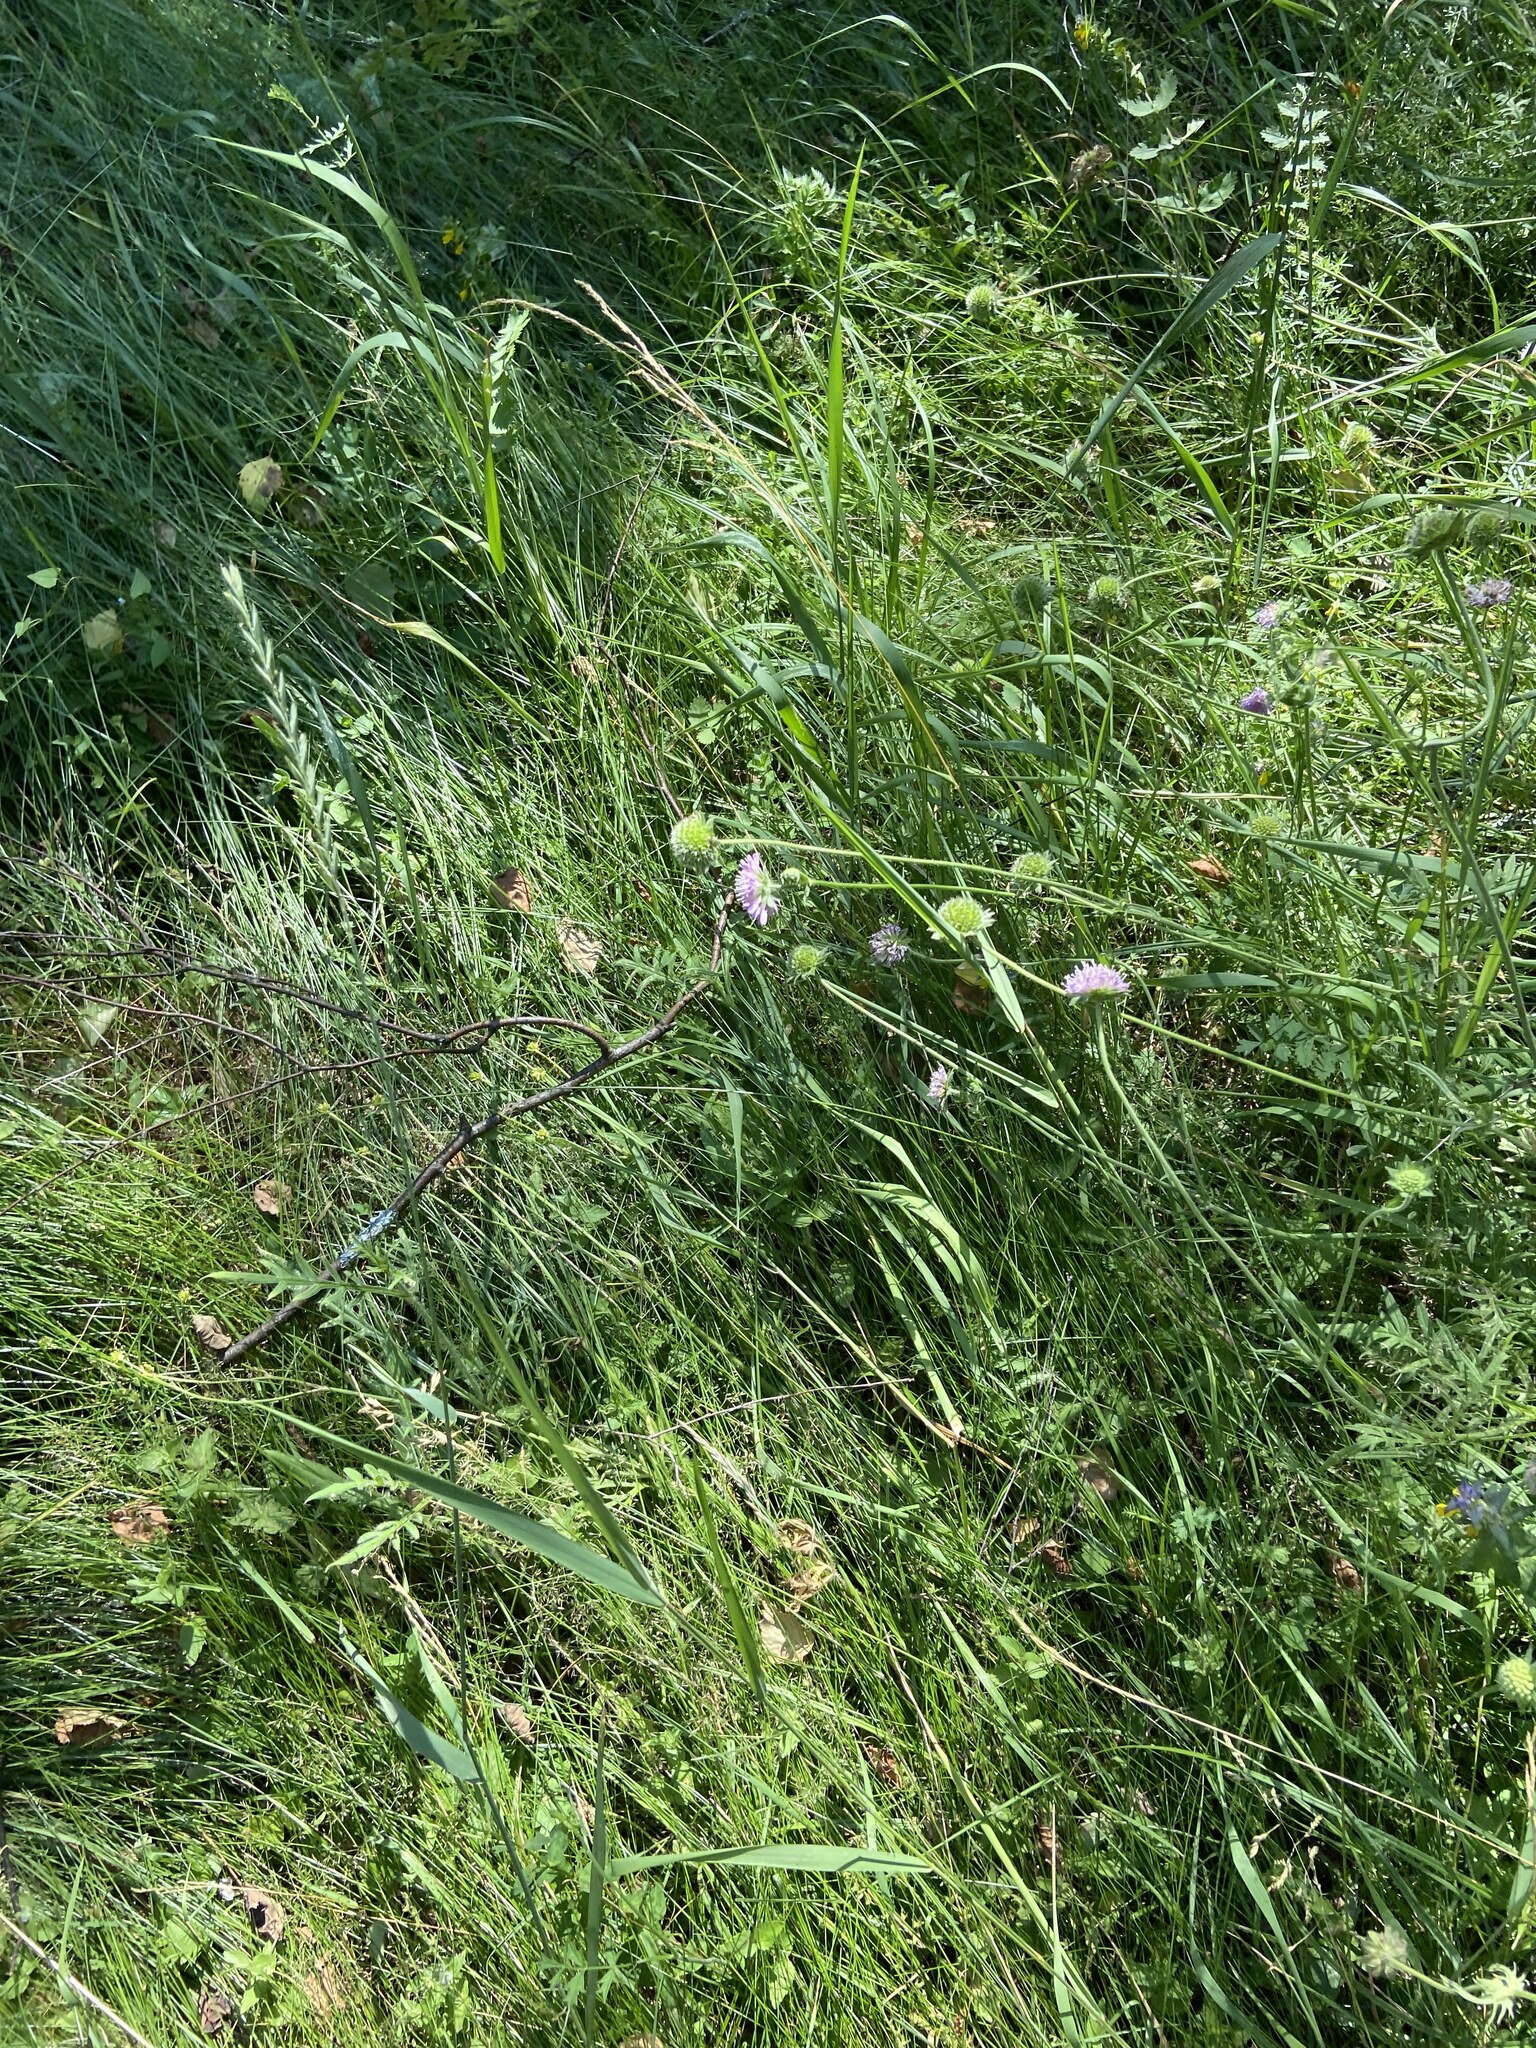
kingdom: Plantae
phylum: Tracheophyta
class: Magnoliopsida
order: Dipsacales
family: Caprifoliaceae
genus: Knautia
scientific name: Knautia arvensis
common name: Field scabiosa
